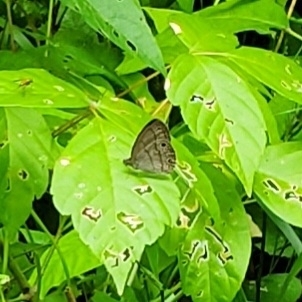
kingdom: Animalia
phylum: Arthropoda
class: Insecta
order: Lepidoptera
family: Nymphalidae
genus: Hermeuptychia
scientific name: Hermeuptychia hermes
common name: Hermes satyr
